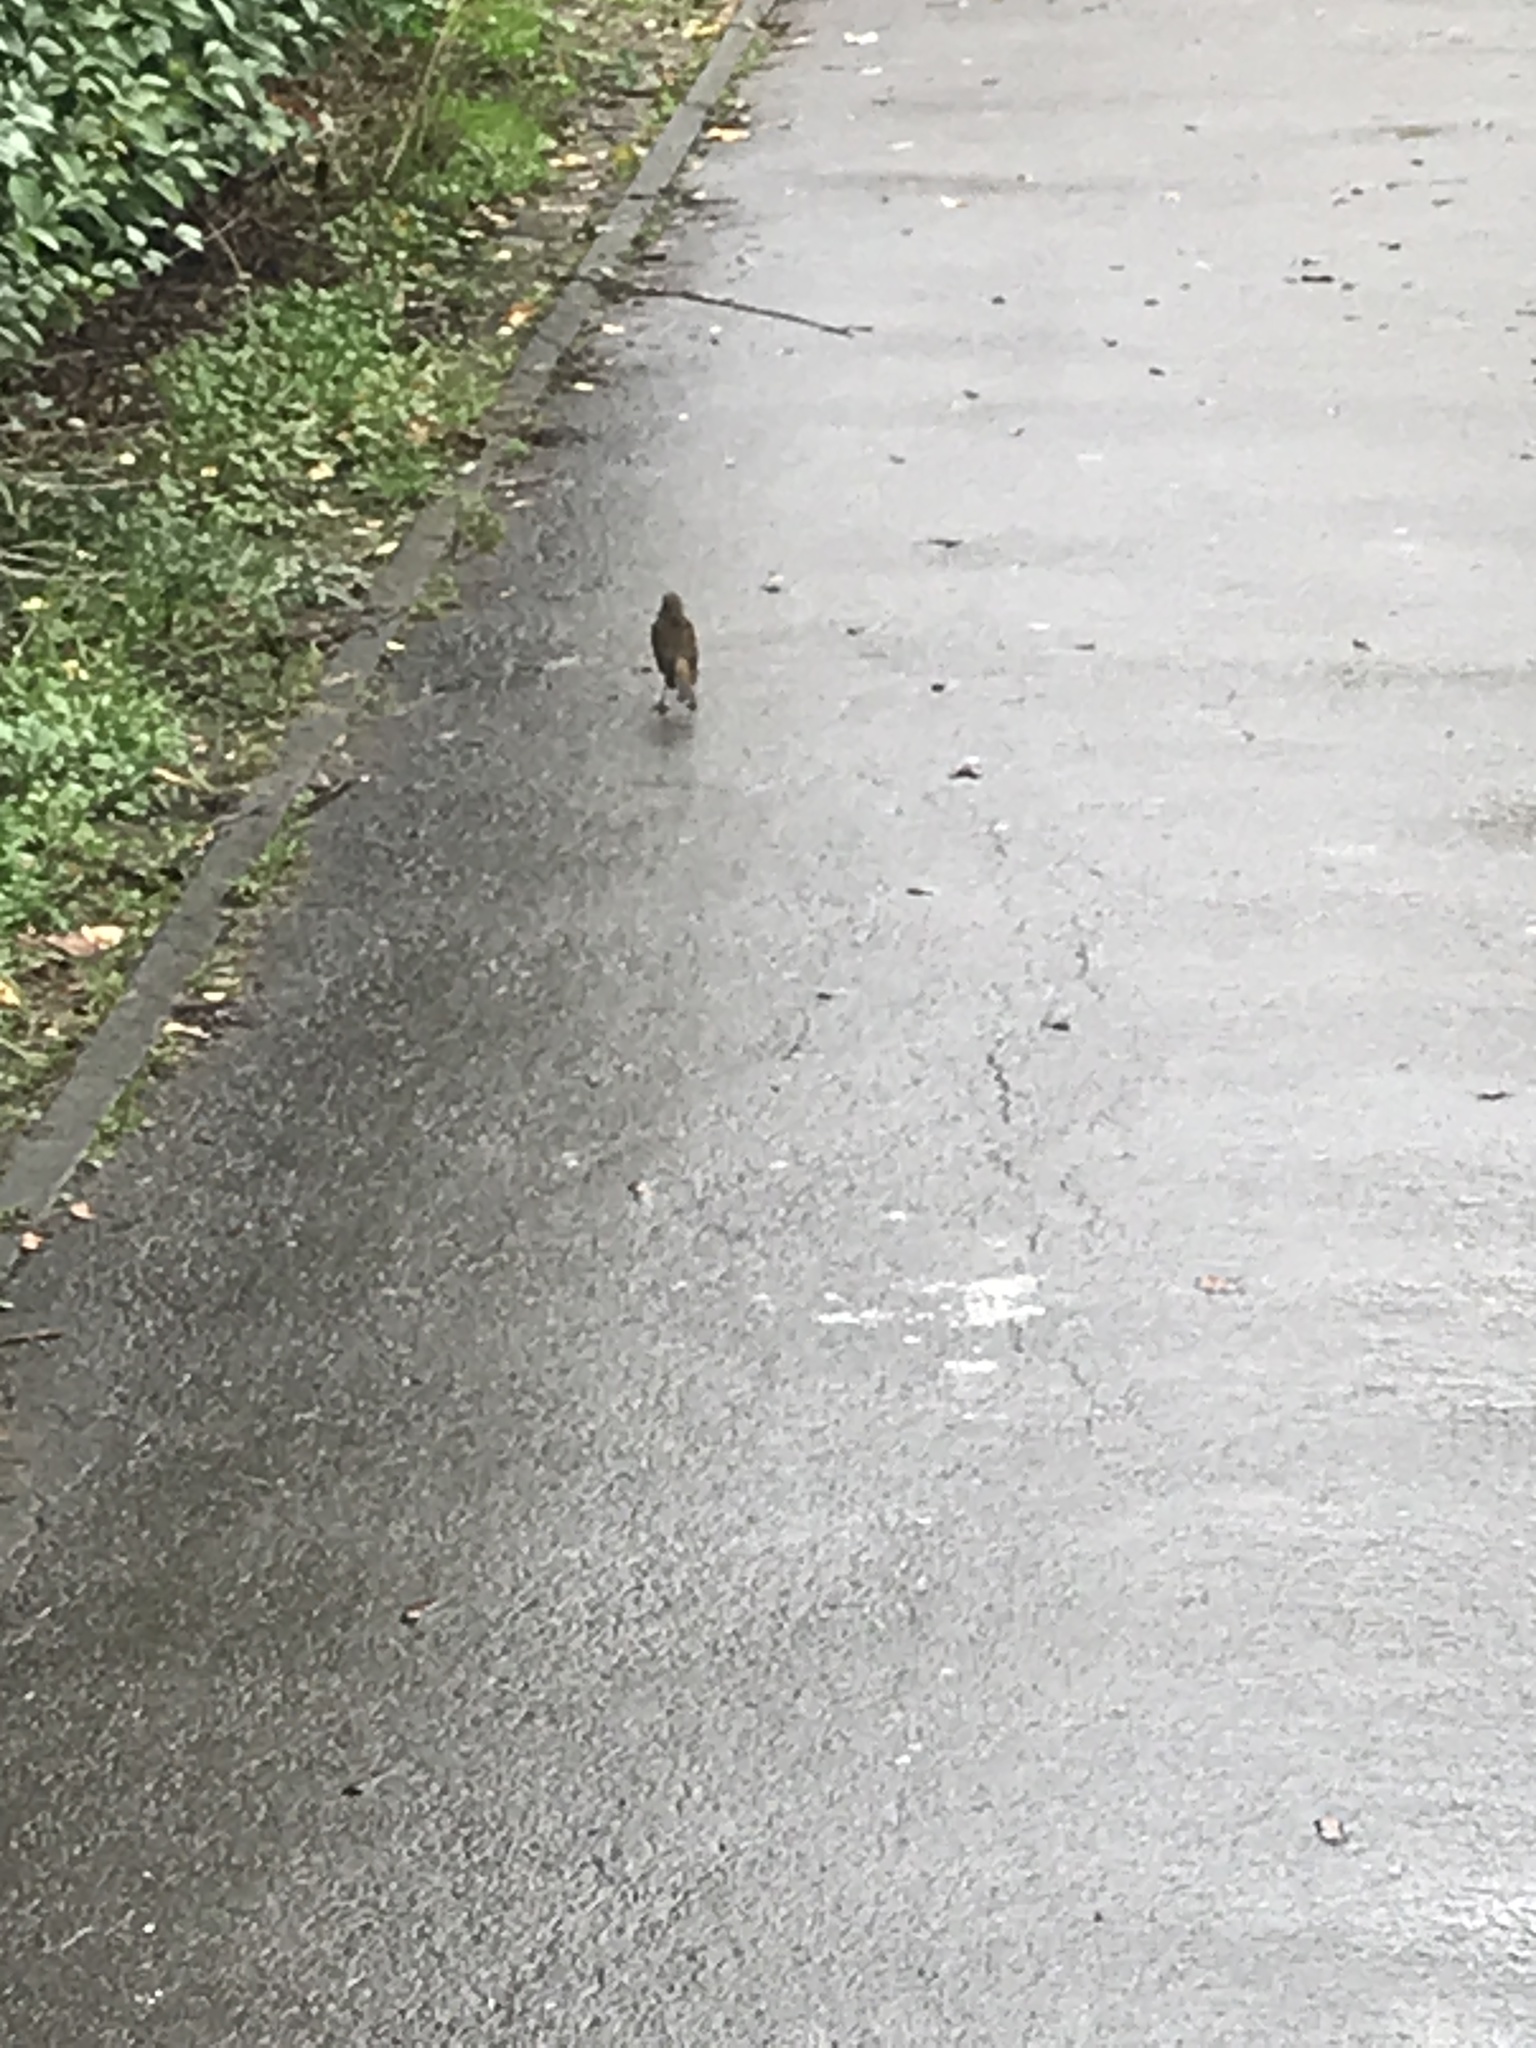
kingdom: Animalia
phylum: Chordata
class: Aves
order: Passeriformes
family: Muscicapidae
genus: Erithacus
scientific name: Erithacus rubecula
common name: European robin
